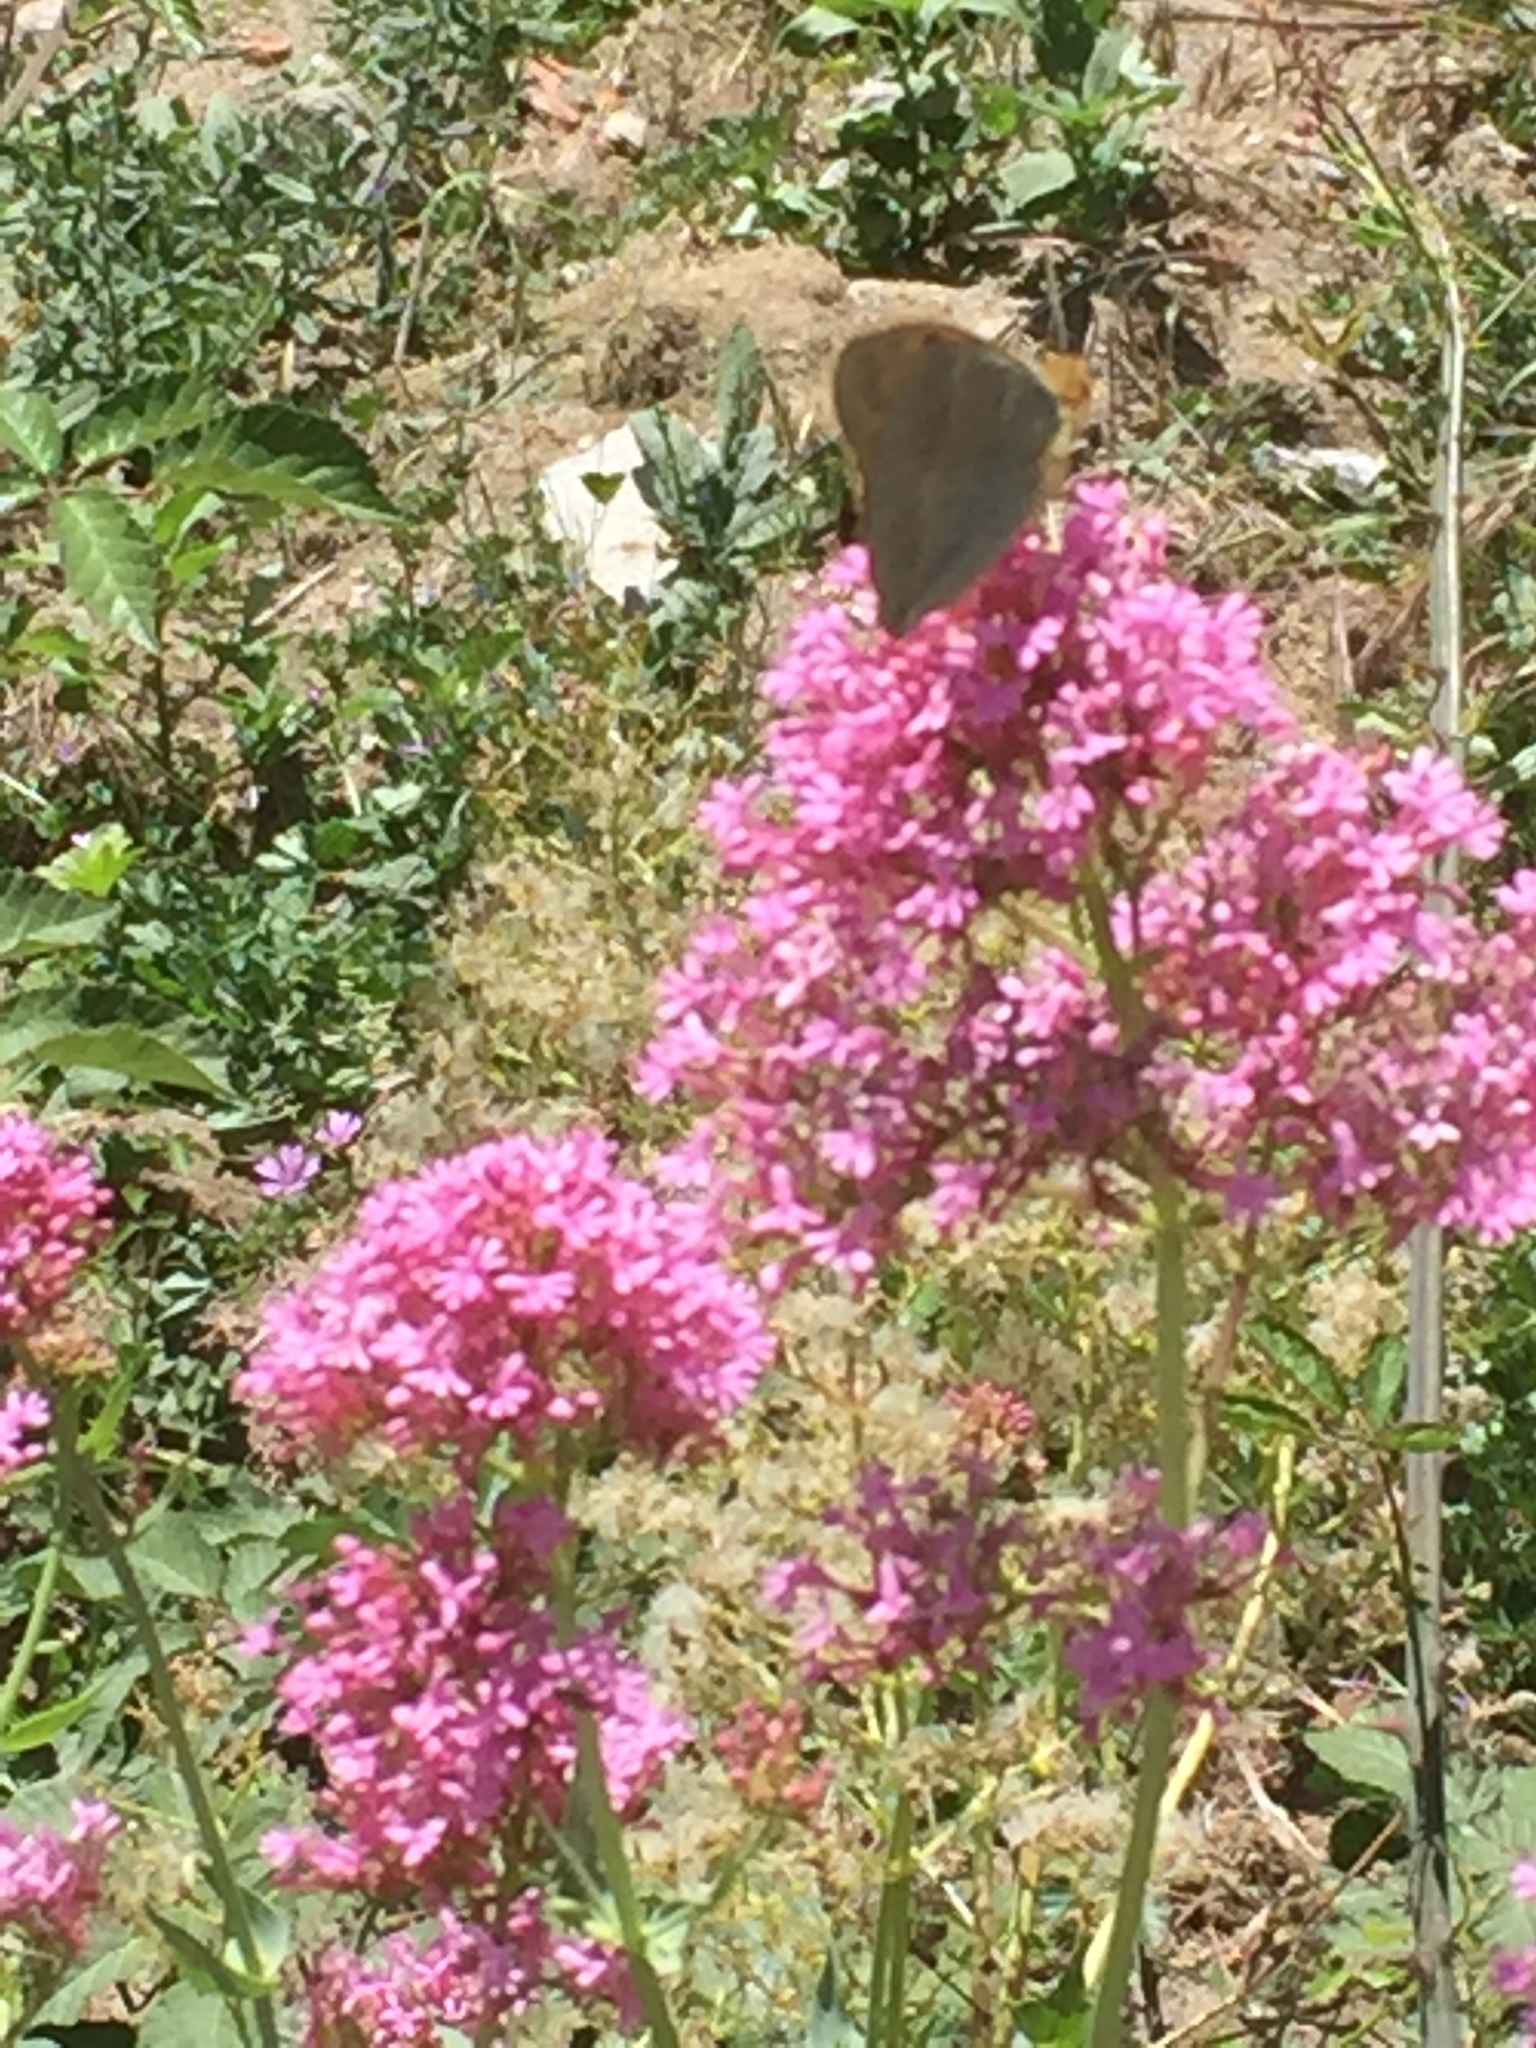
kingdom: Plantae
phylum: Tracheophyta
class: Magnoliopsida
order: Dipsacales
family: Caprifoliaceae
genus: Centranthus
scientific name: Centranthus ruber
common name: Red valerian
